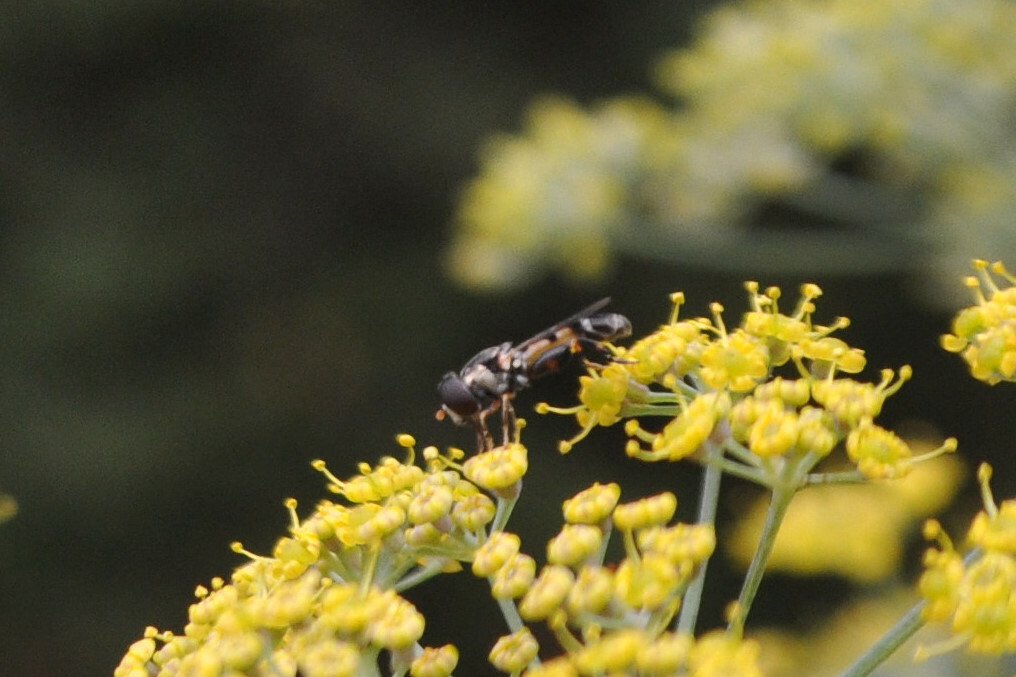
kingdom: Animalia
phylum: Arthropoda
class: Insecta
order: Diptera
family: Syrphidae
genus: Syritta
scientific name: Syritta pipiens
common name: Hover fly
